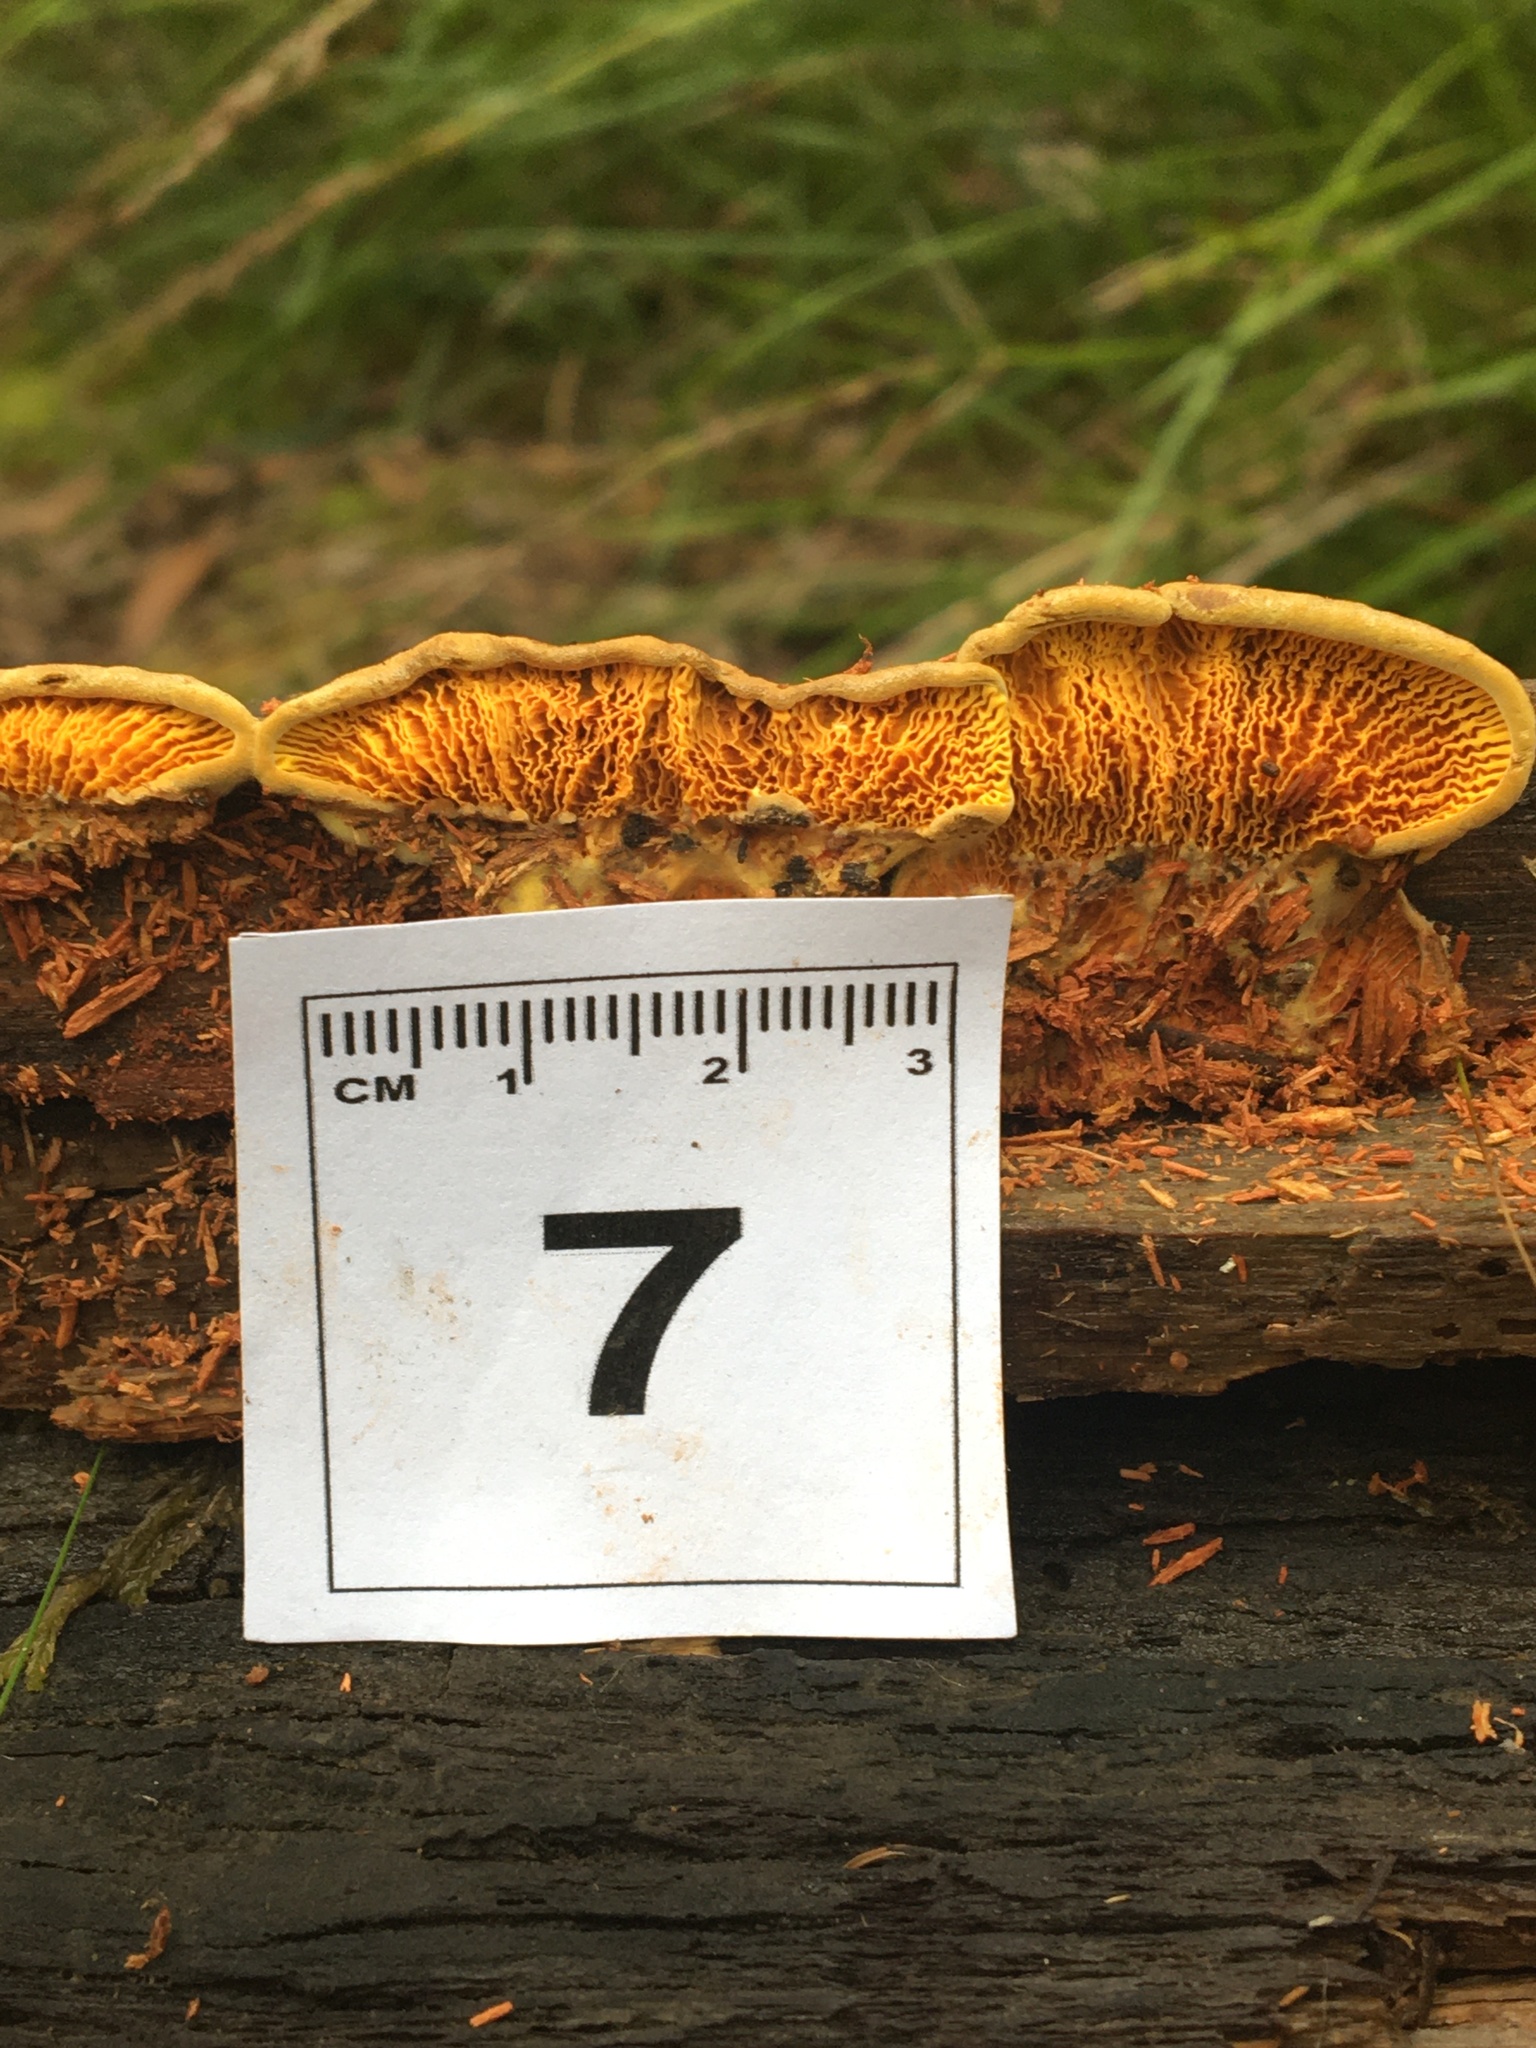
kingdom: Fungi
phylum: Basidiomycota
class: Agaricomycetes
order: Boletales
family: Paxillaceae
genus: Meiorganum
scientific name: Meiorganum curtisii
